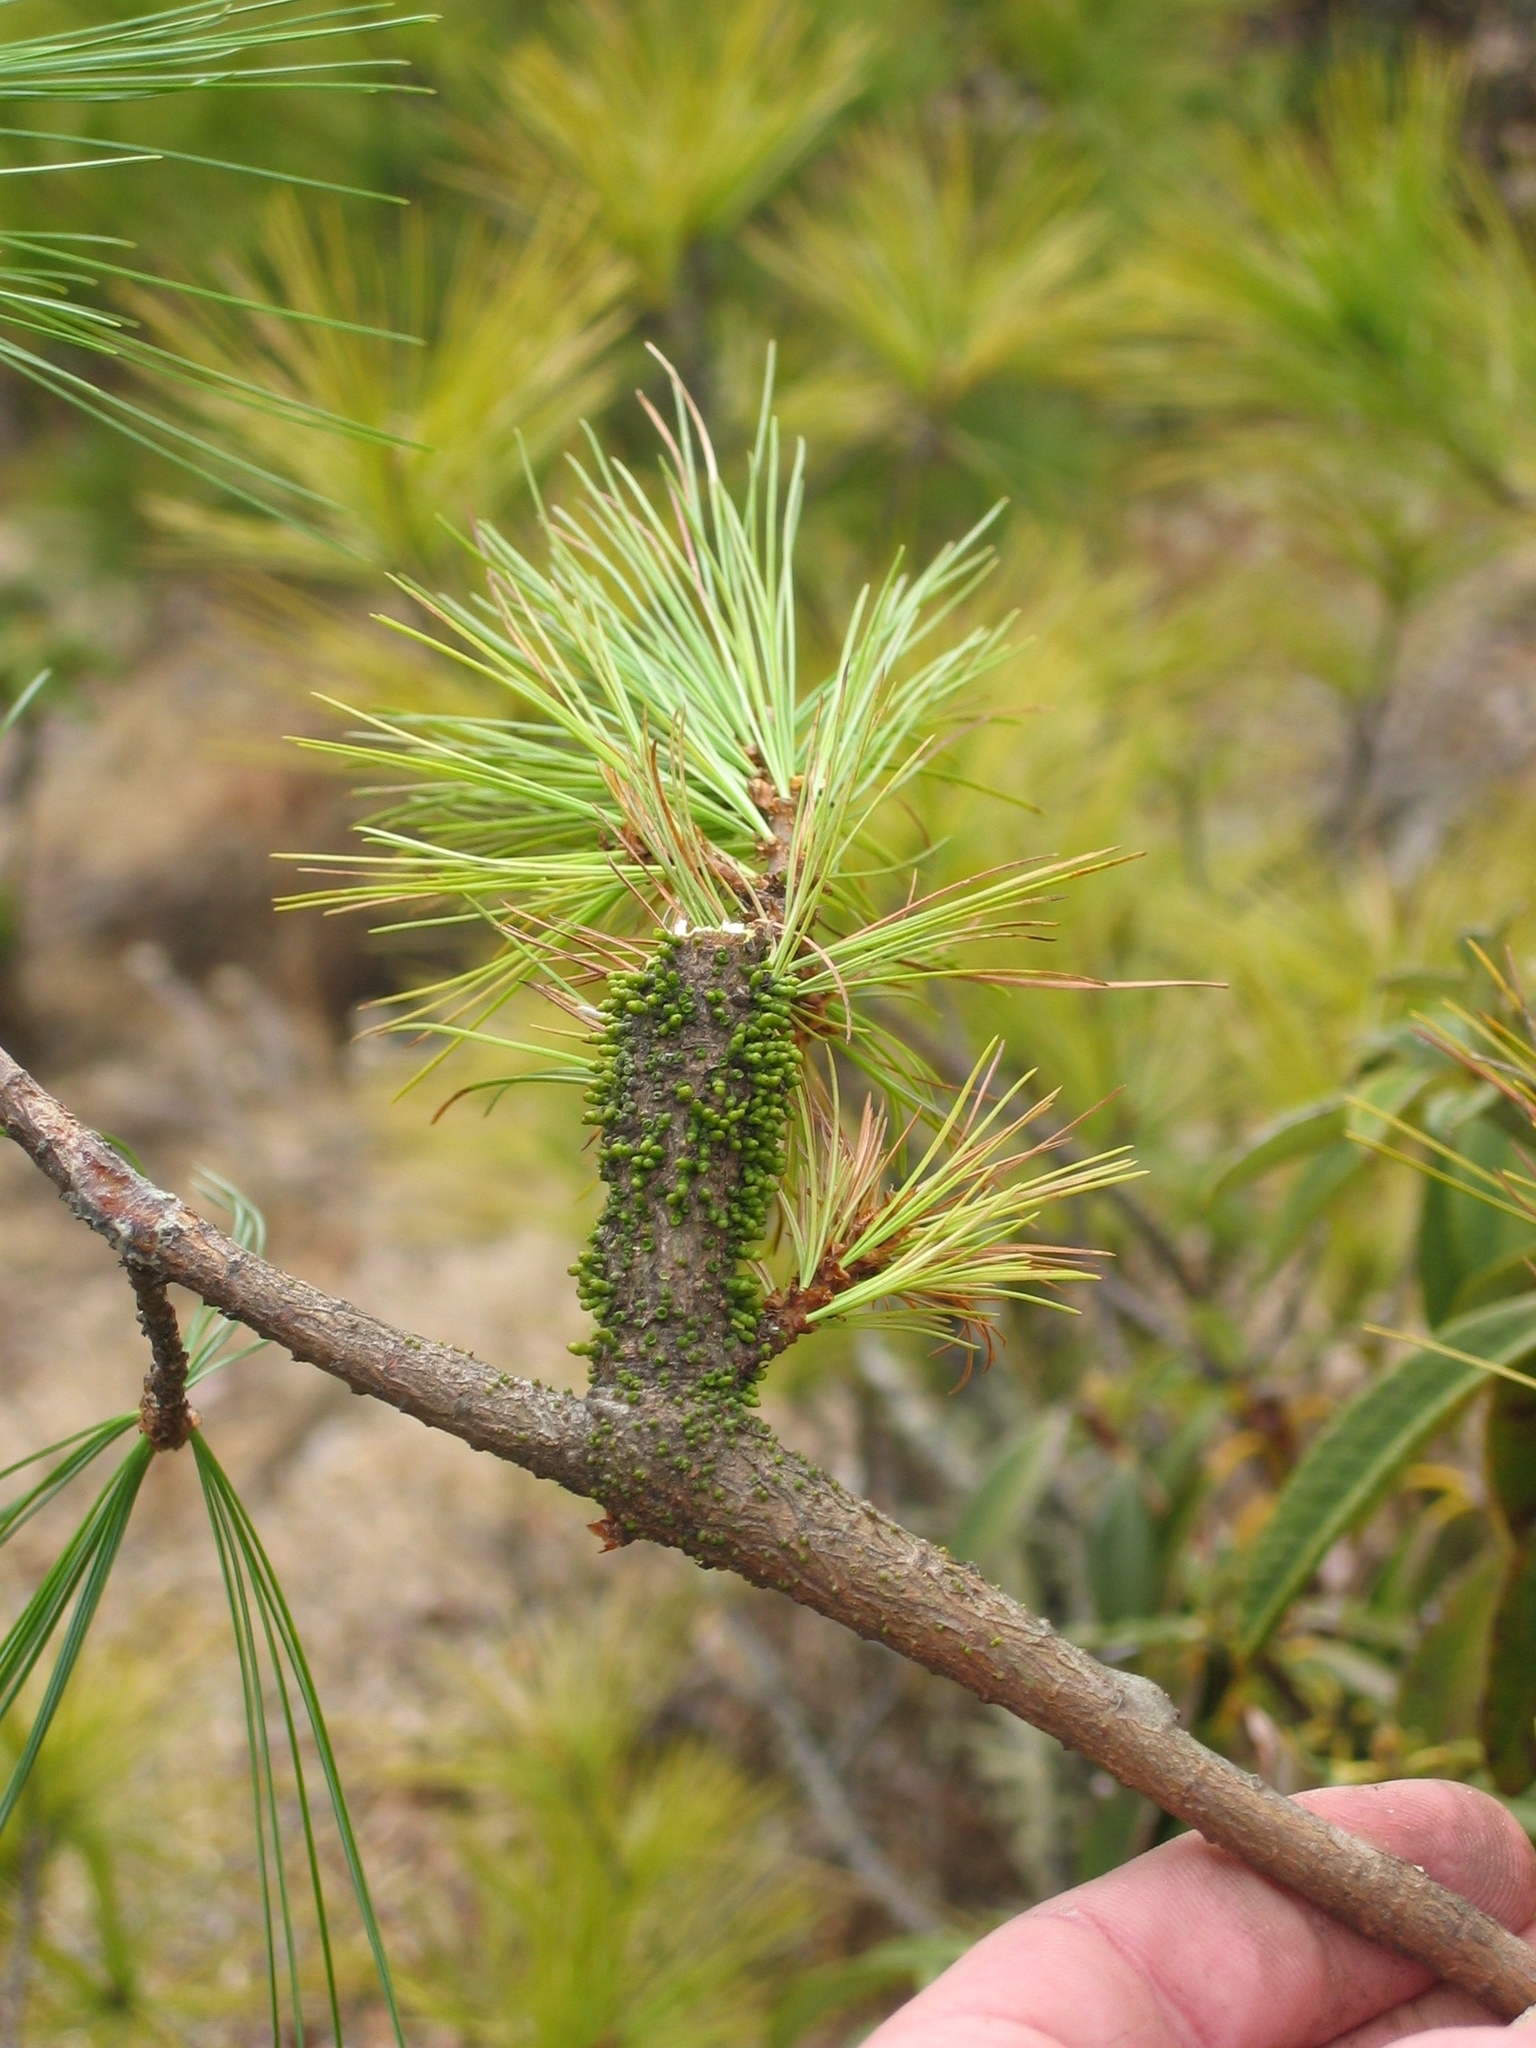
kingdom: Plantae
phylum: Tracheophyta
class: Magnoliopsida
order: Santalales
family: Viscaceae
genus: Arceuthobium
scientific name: Arceuthobium minutissimum
